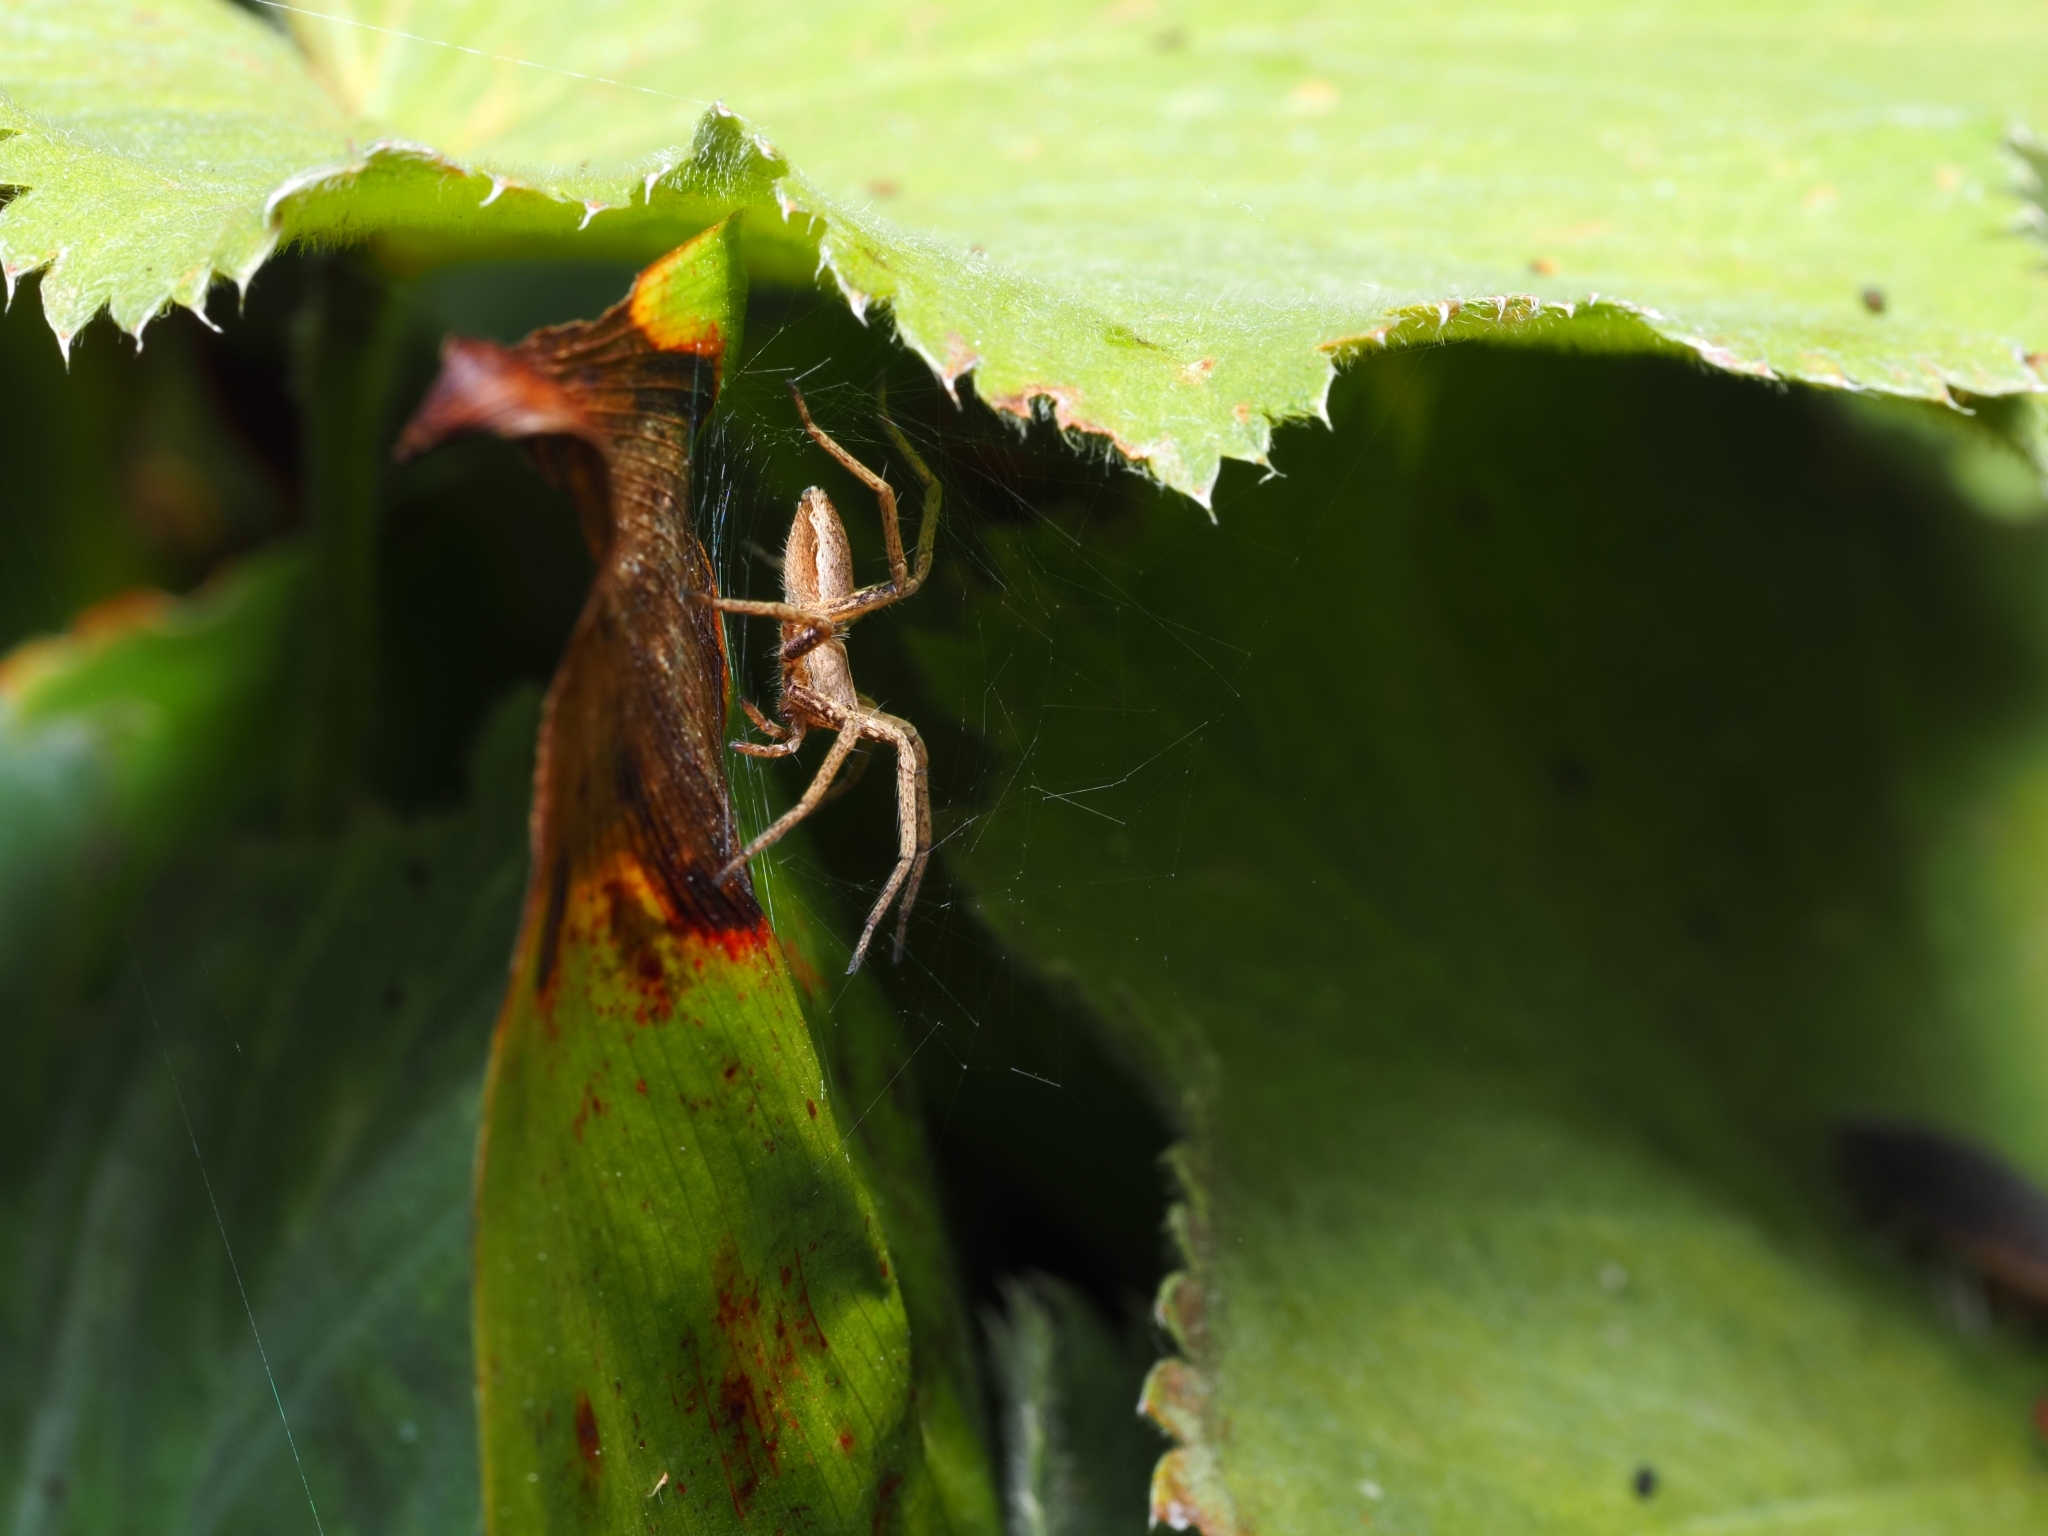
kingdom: Animalia
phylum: Arthropoda
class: Arachnida
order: Araneae
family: Pisauridae
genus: Pisaura
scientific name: Pisaura mirabilis
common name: Tent spider
